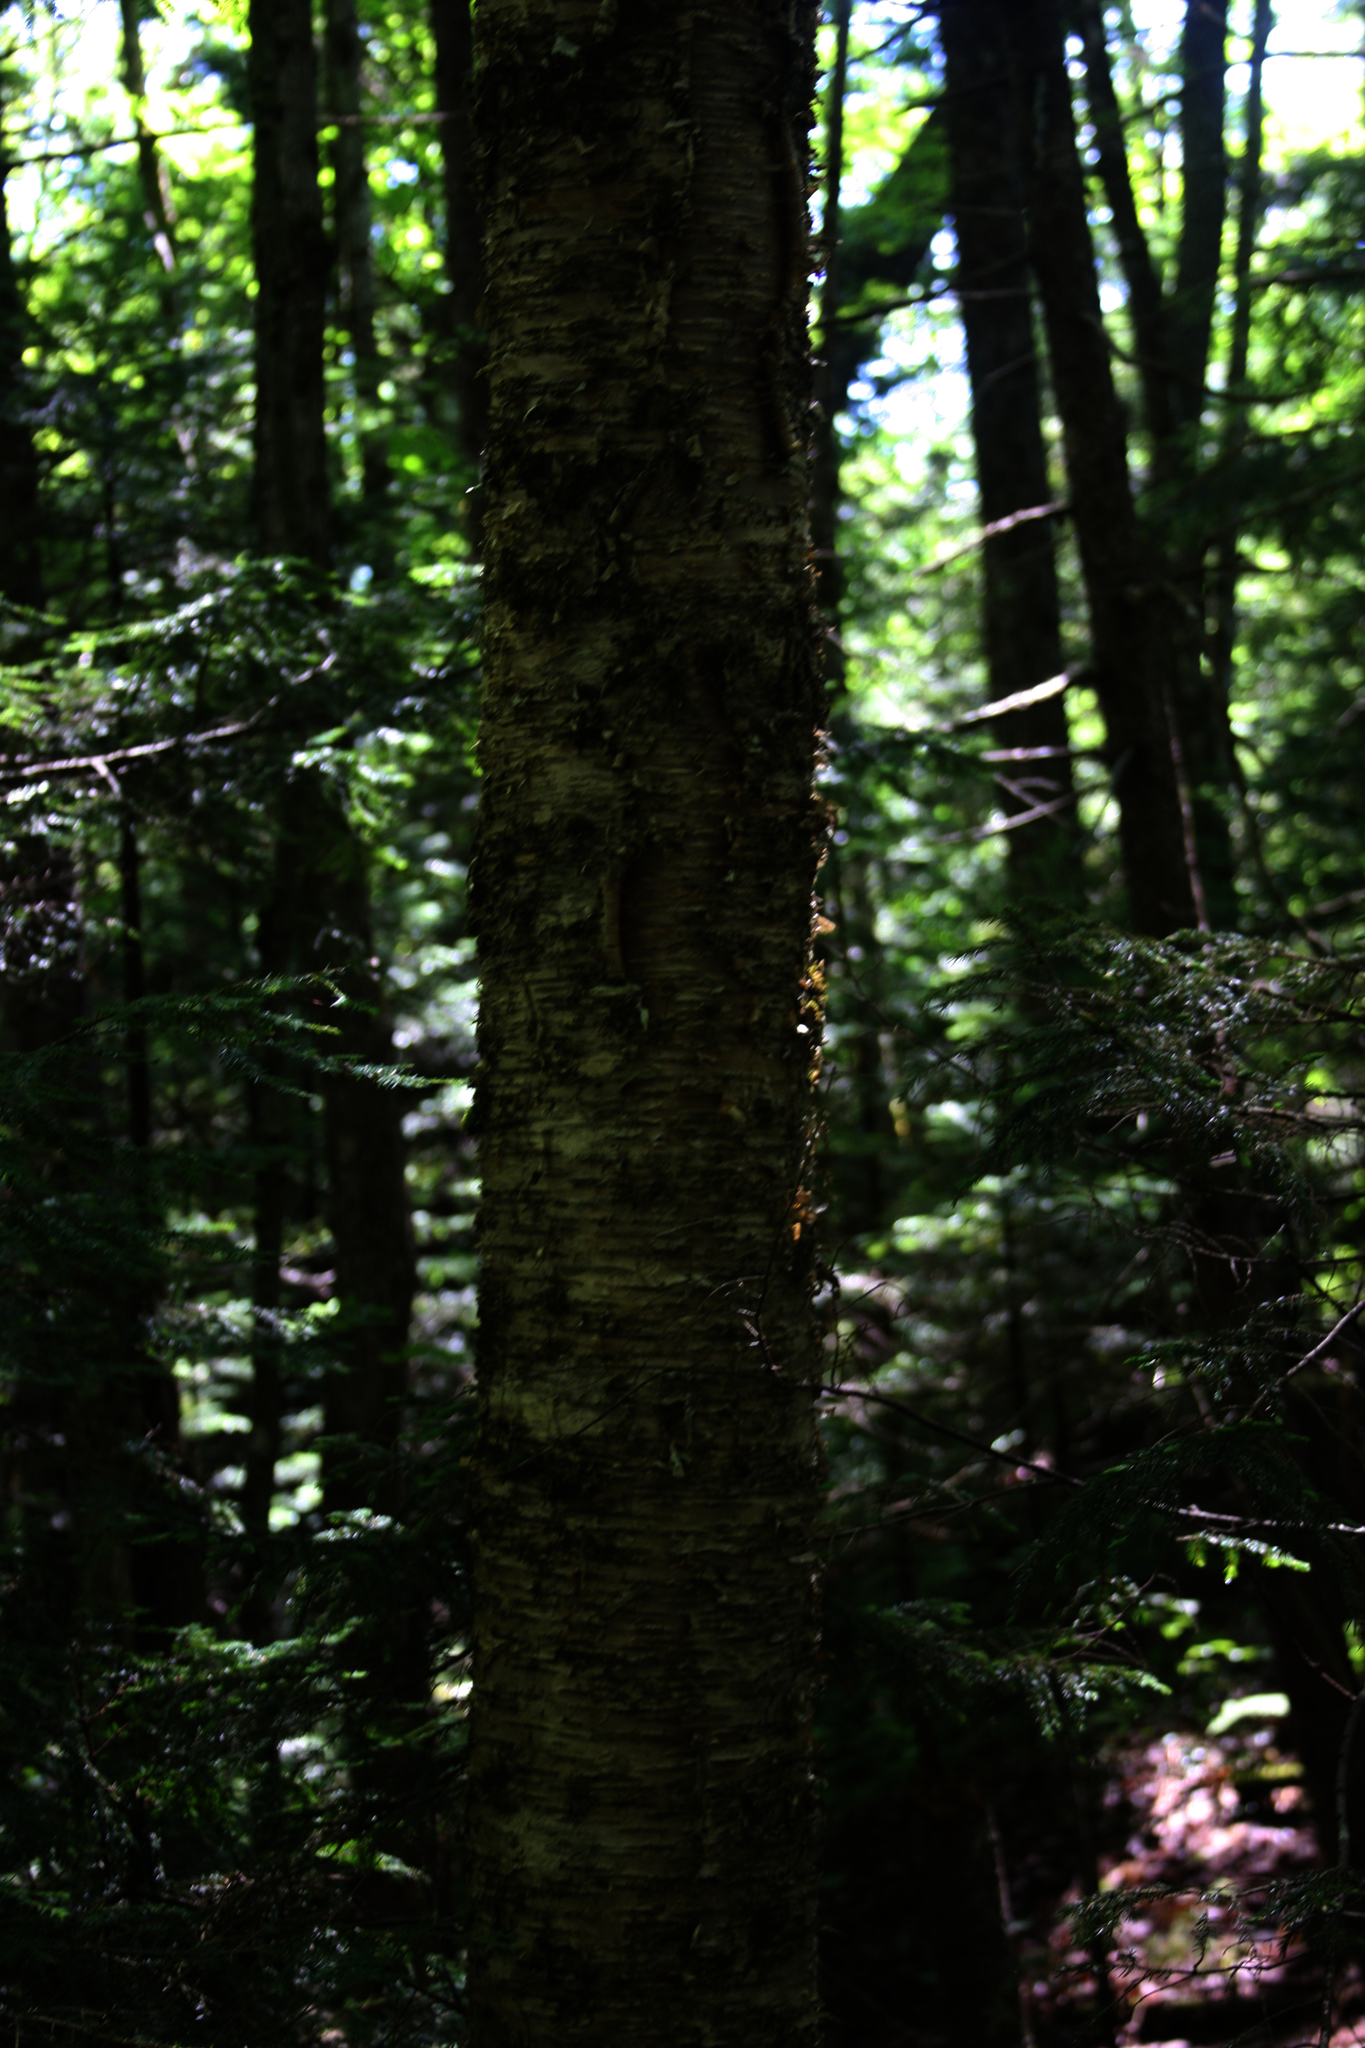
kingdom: Plantae
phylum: Tracheophyta
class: Magnoliopsida
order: Fagales
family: Betulaceae
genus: Betula
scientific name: Betula alleghaniensis
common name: Yellow birch
